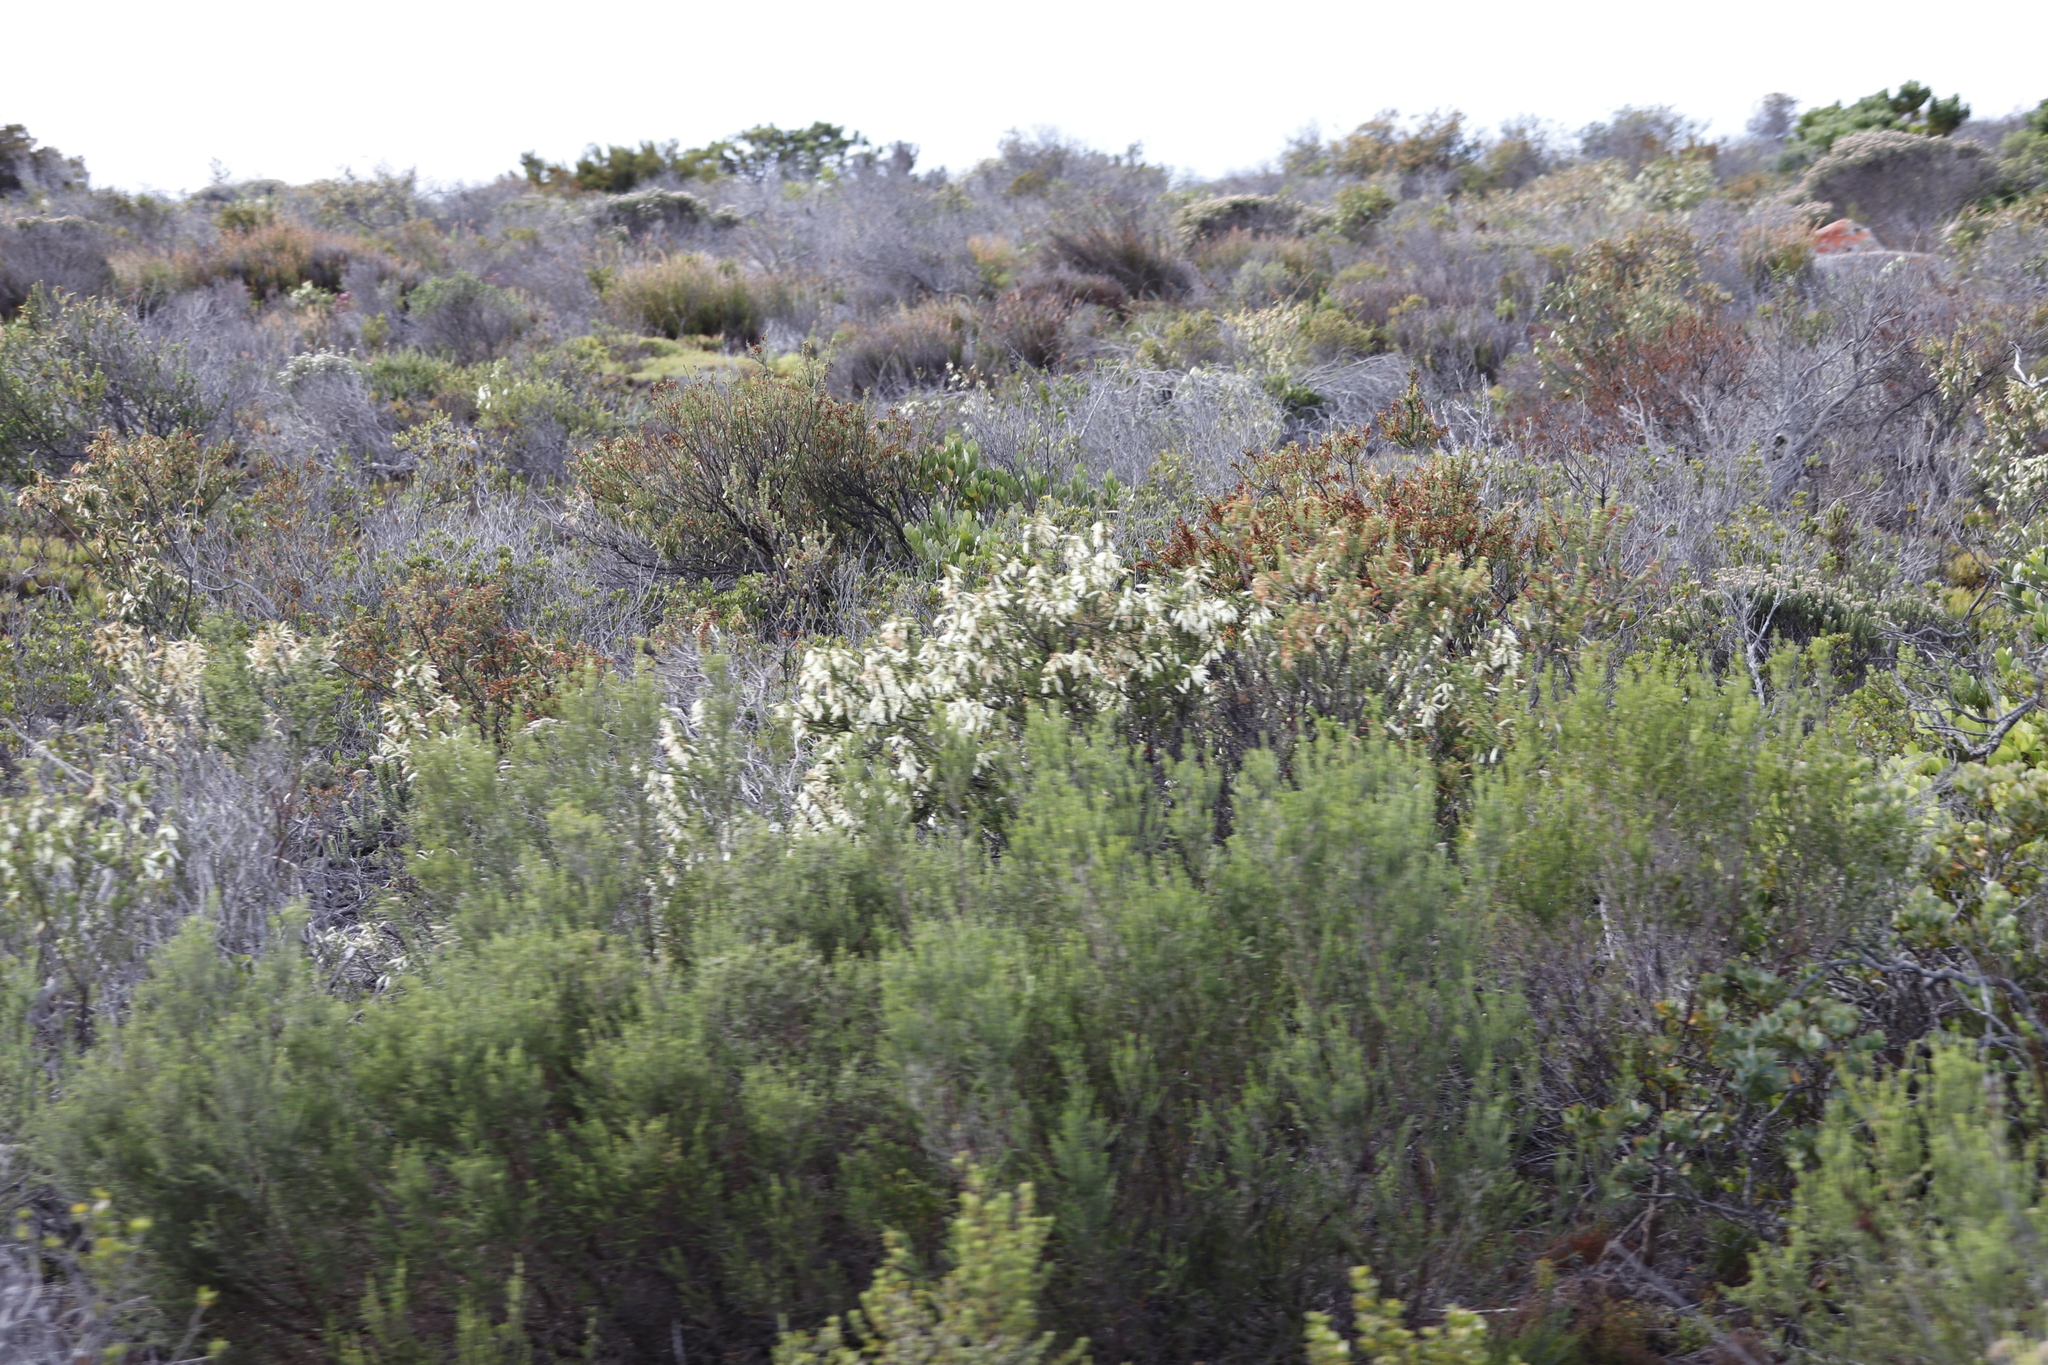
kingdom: Plantae
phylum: Tracheophyta
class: Magnoliopsida
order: Ericales
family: Ericaceae
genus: Erica
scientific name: Erica mammosa
